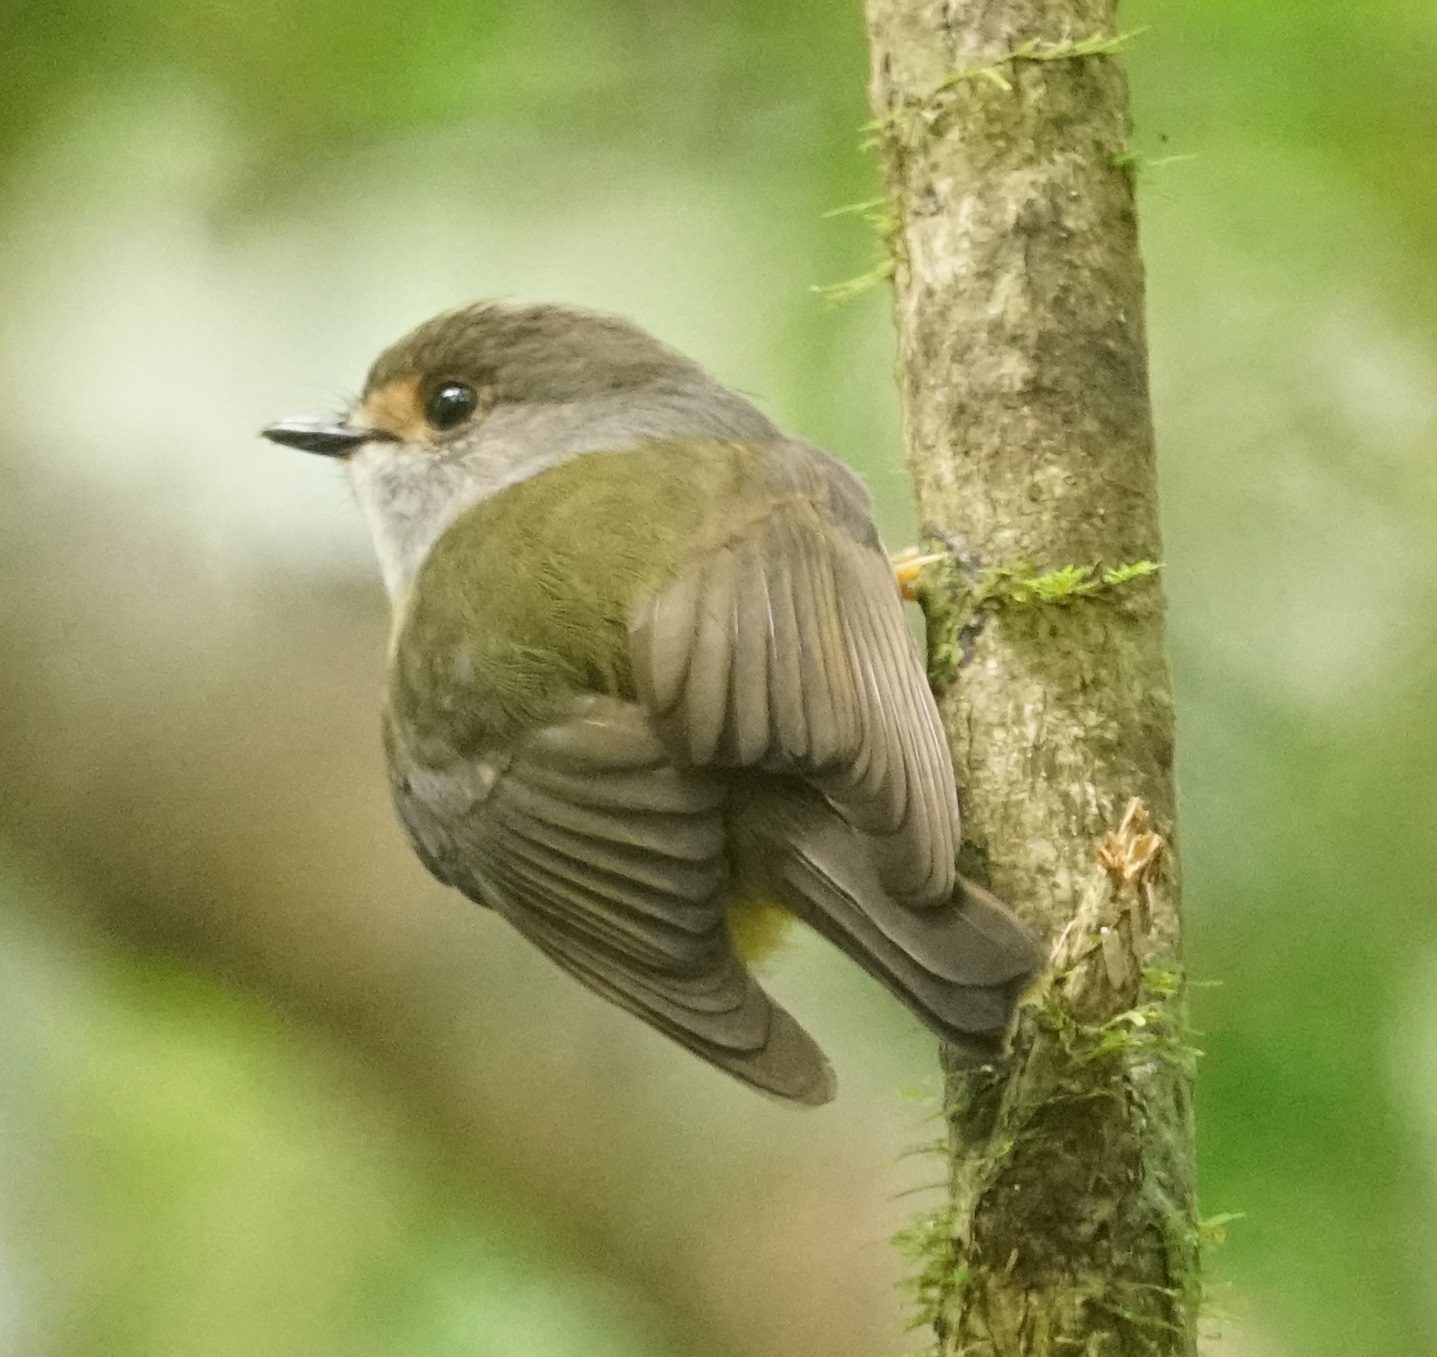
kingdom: Animalia
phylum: Chordata
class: Aves
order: Passeriformes
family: Petroicidae
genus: Eopsaltria
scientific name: Eopsaltria
